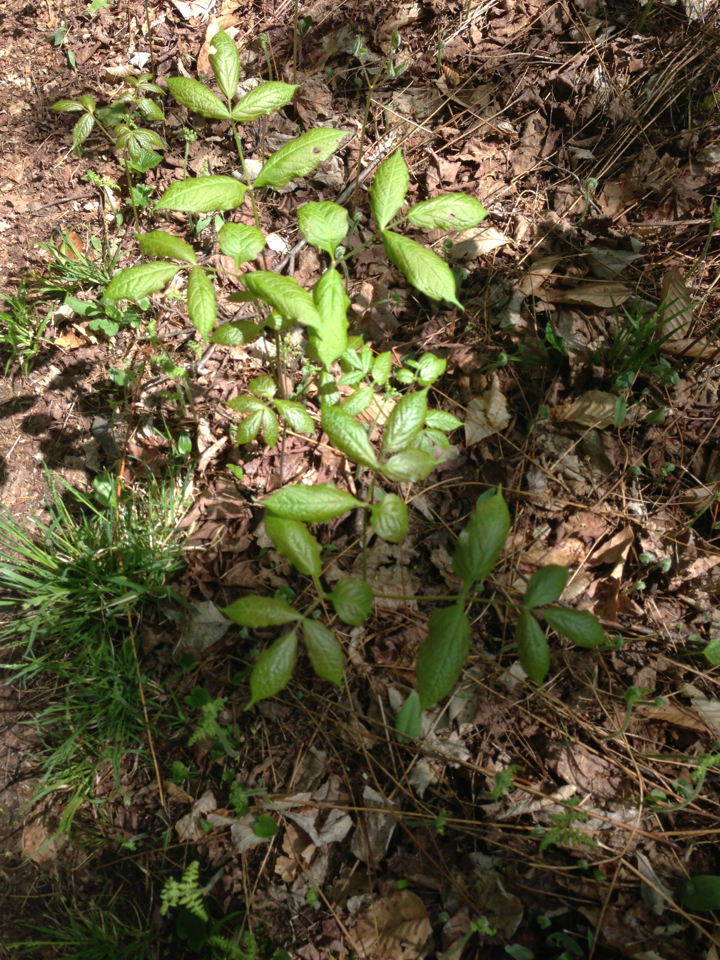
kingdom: Plantae
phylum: Tracheophyta
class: Magnoliopsida
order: Apiales
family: Araliaceae
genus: Aralia
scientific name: Aralia nudicaulis
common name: Wild sarsaparilla
